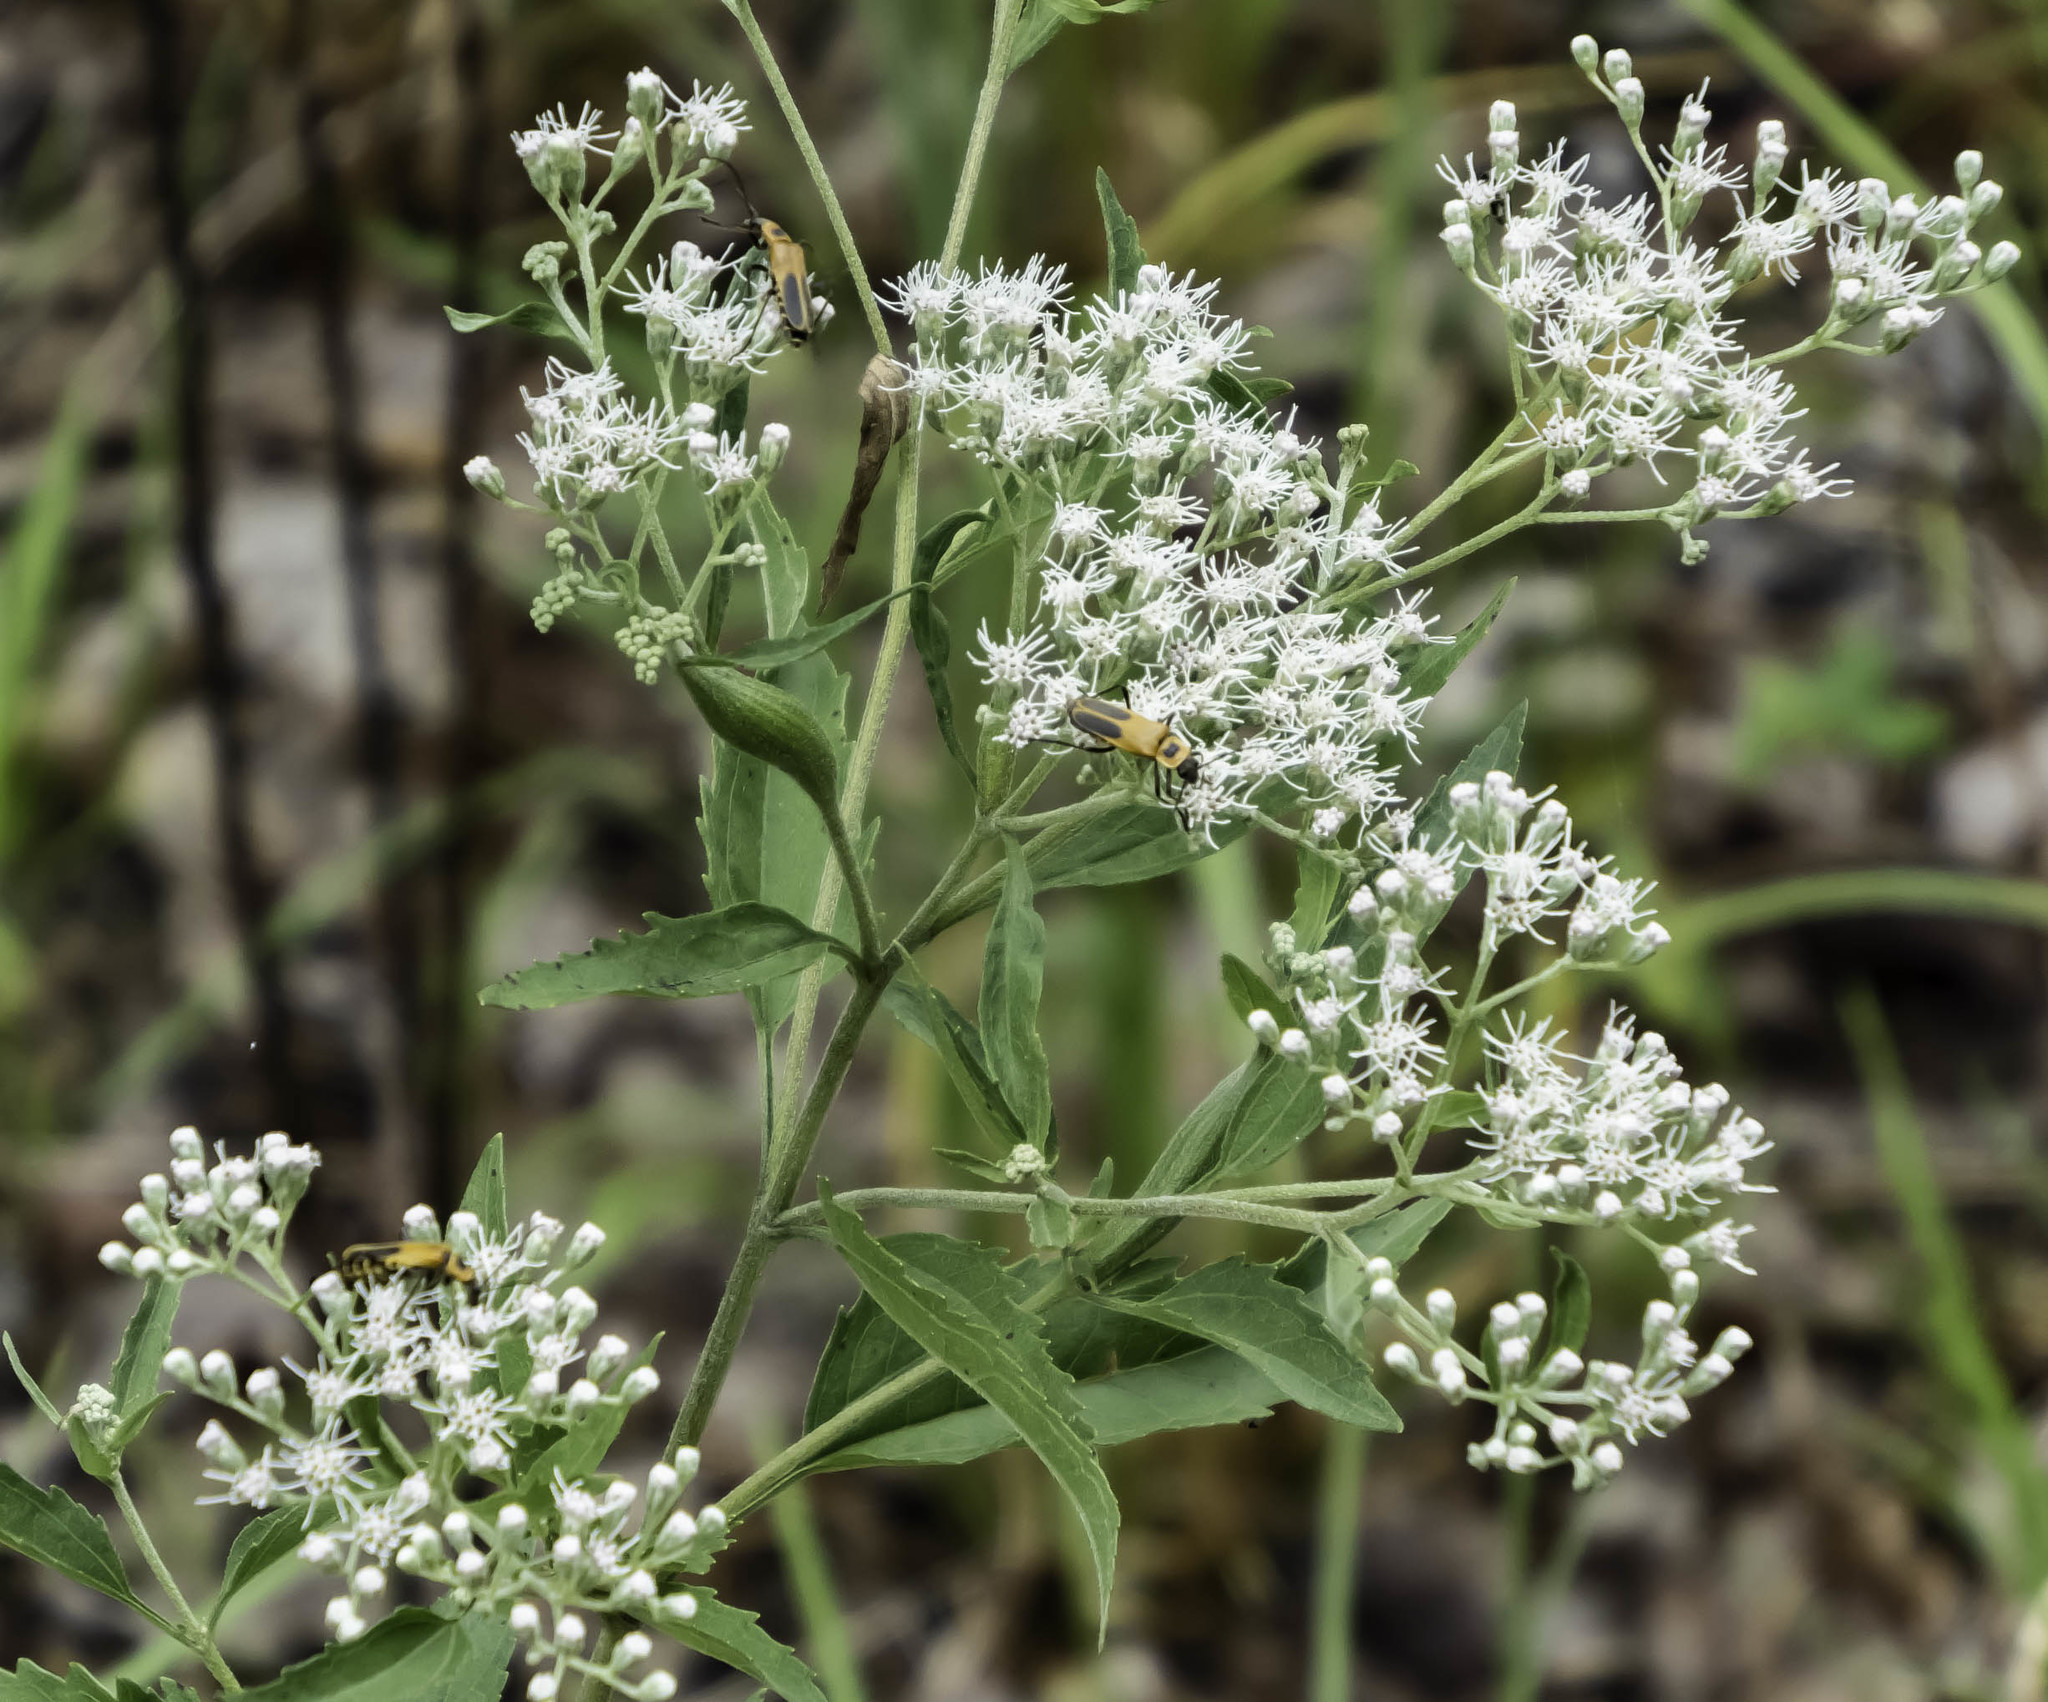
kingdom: Plantae
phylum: Tracheophyta
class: Magnoliopsida
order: Asterales
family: Asteraceae
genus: Eupatorium
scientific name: Eupatorium serotinum
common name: Late boneset
